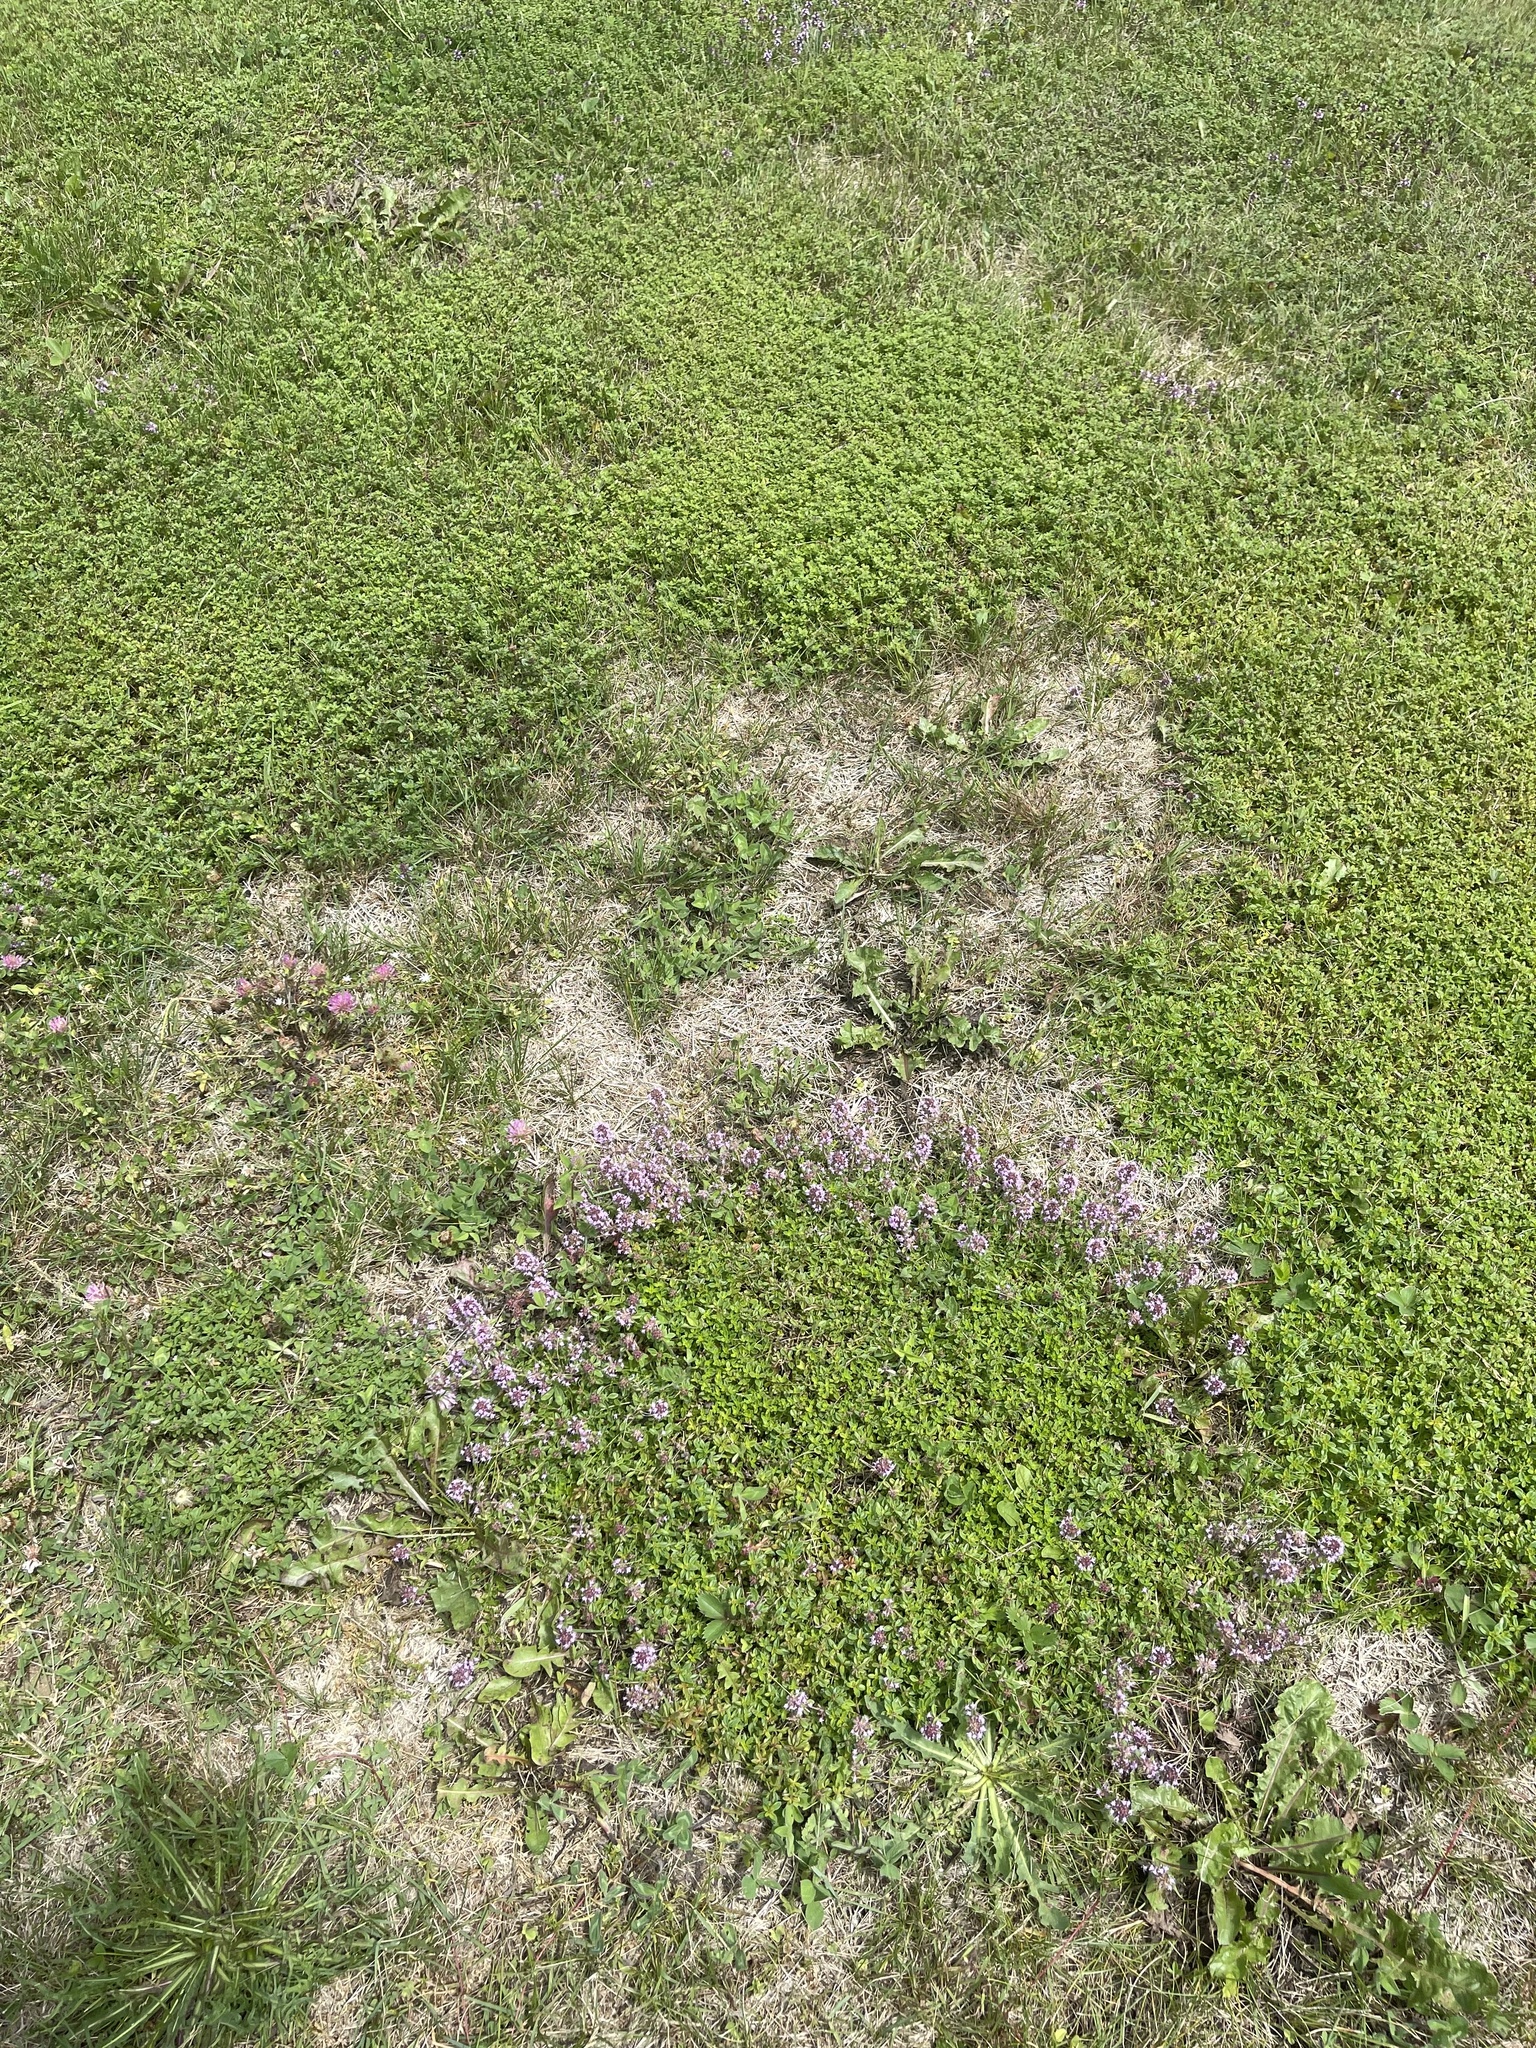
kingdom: Plantae
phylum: Tracheophyta
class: Magnoliopsida
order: Lamiales
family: Lamiaceae
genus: Thymus
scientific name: Thymus pulegioides
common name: Large thyme
